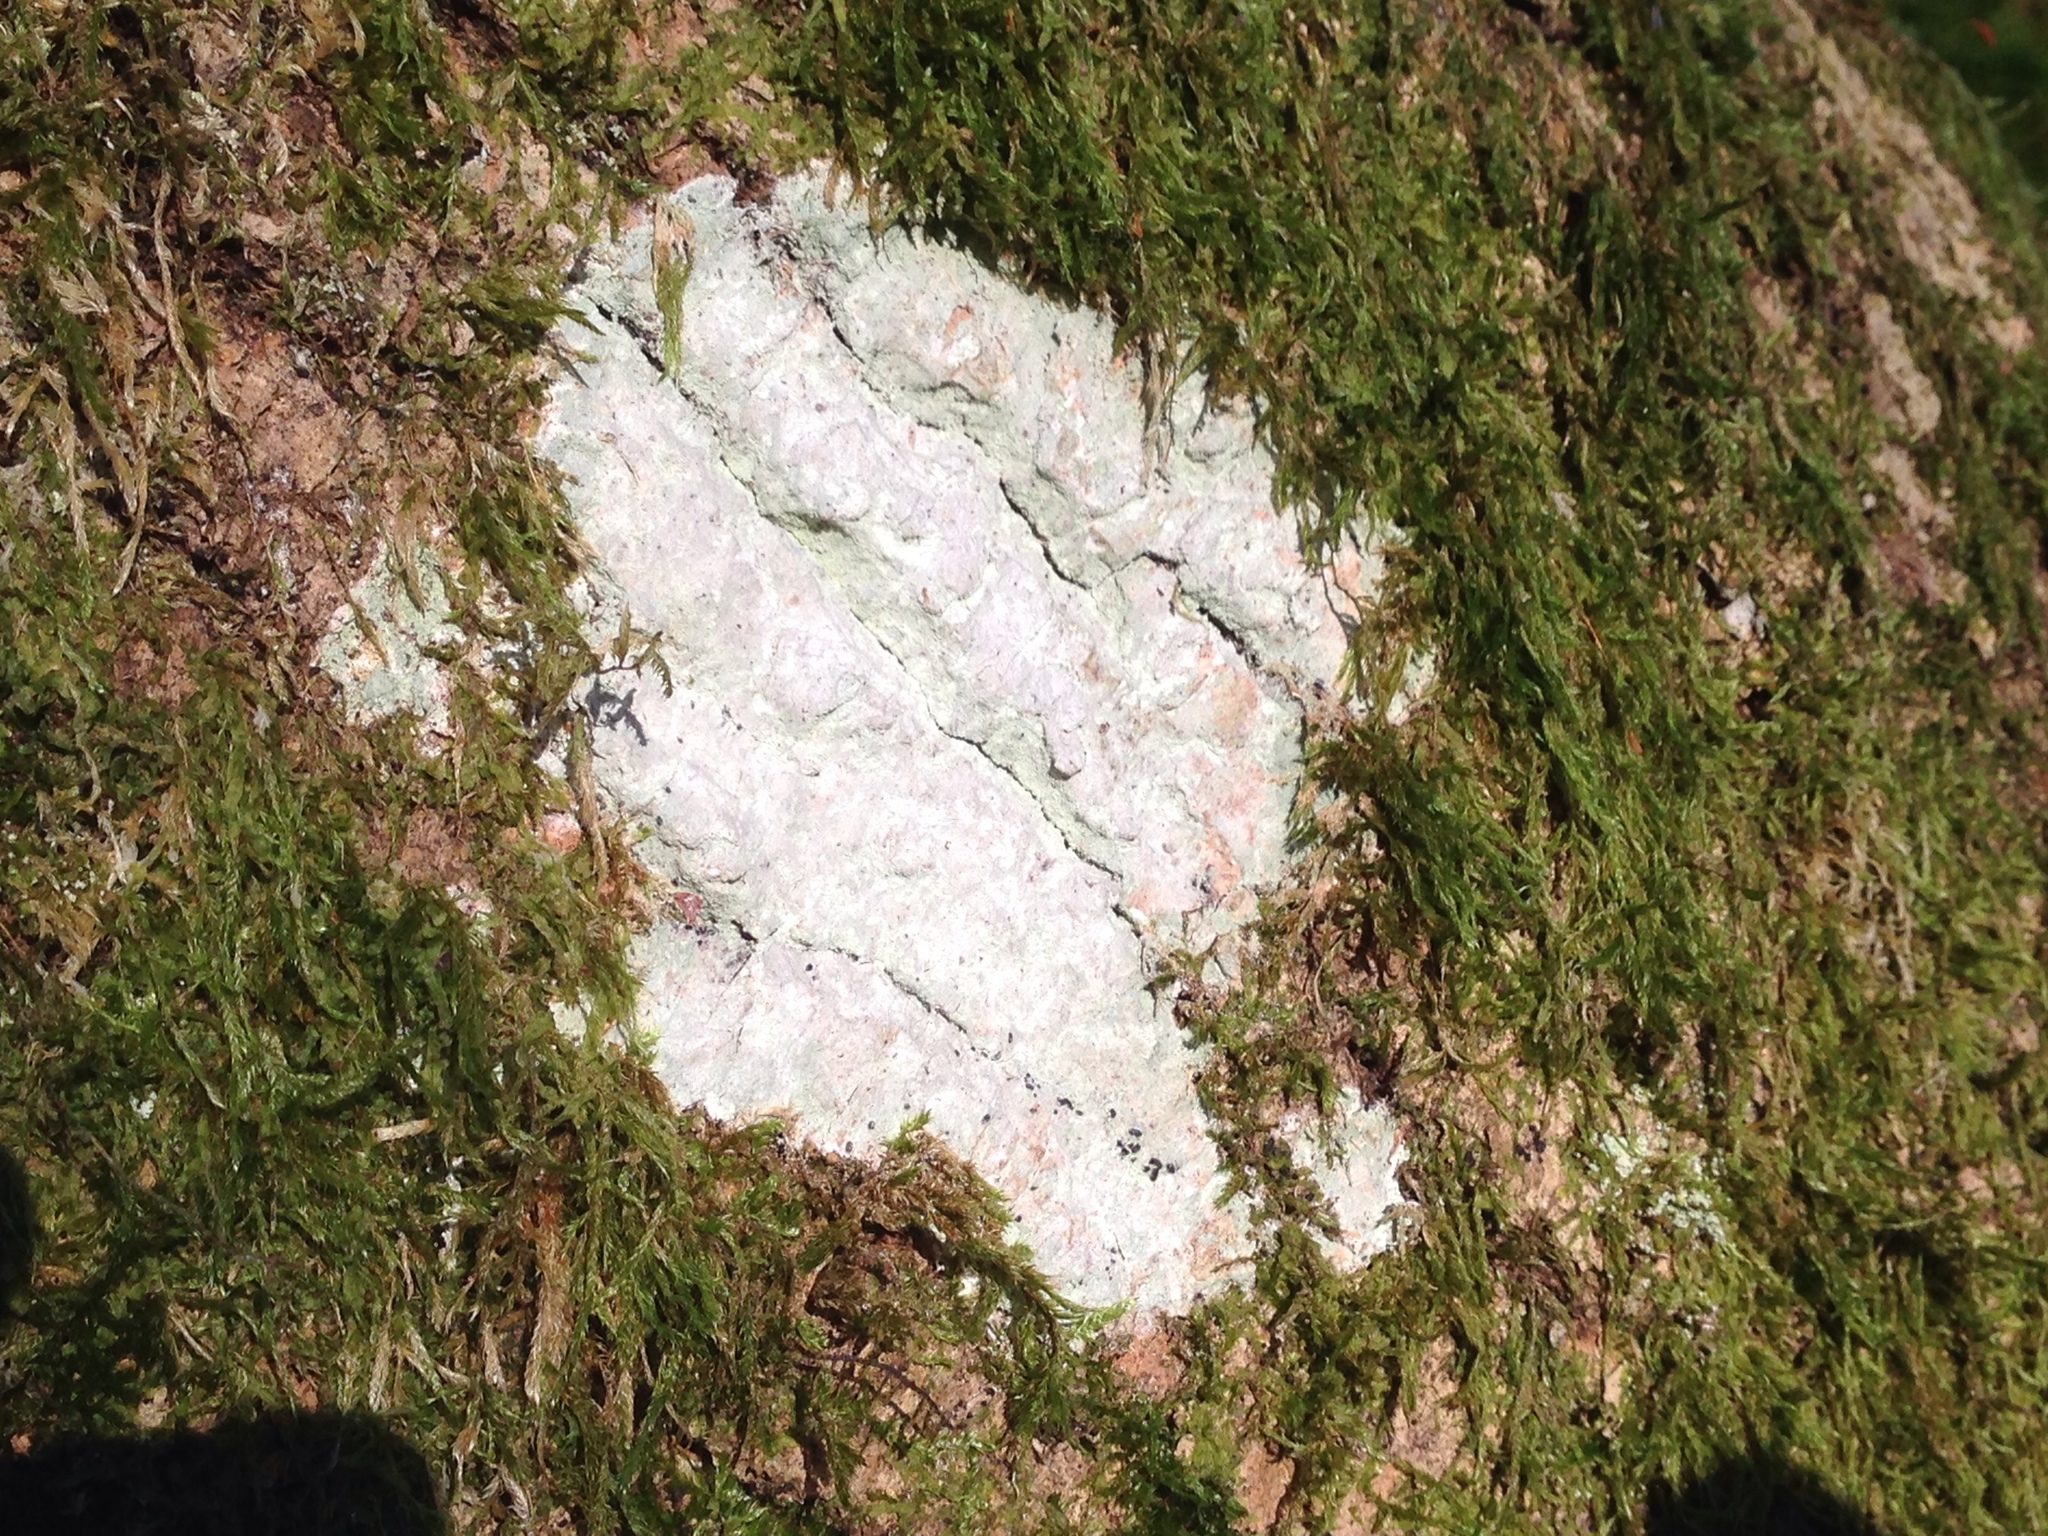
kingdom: Fungi
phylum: Ascomycota
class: Lecanoromycetes
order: Ostropales
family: Phlyctidaceae
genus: Phlyctis
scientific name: Phlyctis argena
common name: Whitewash lichen
